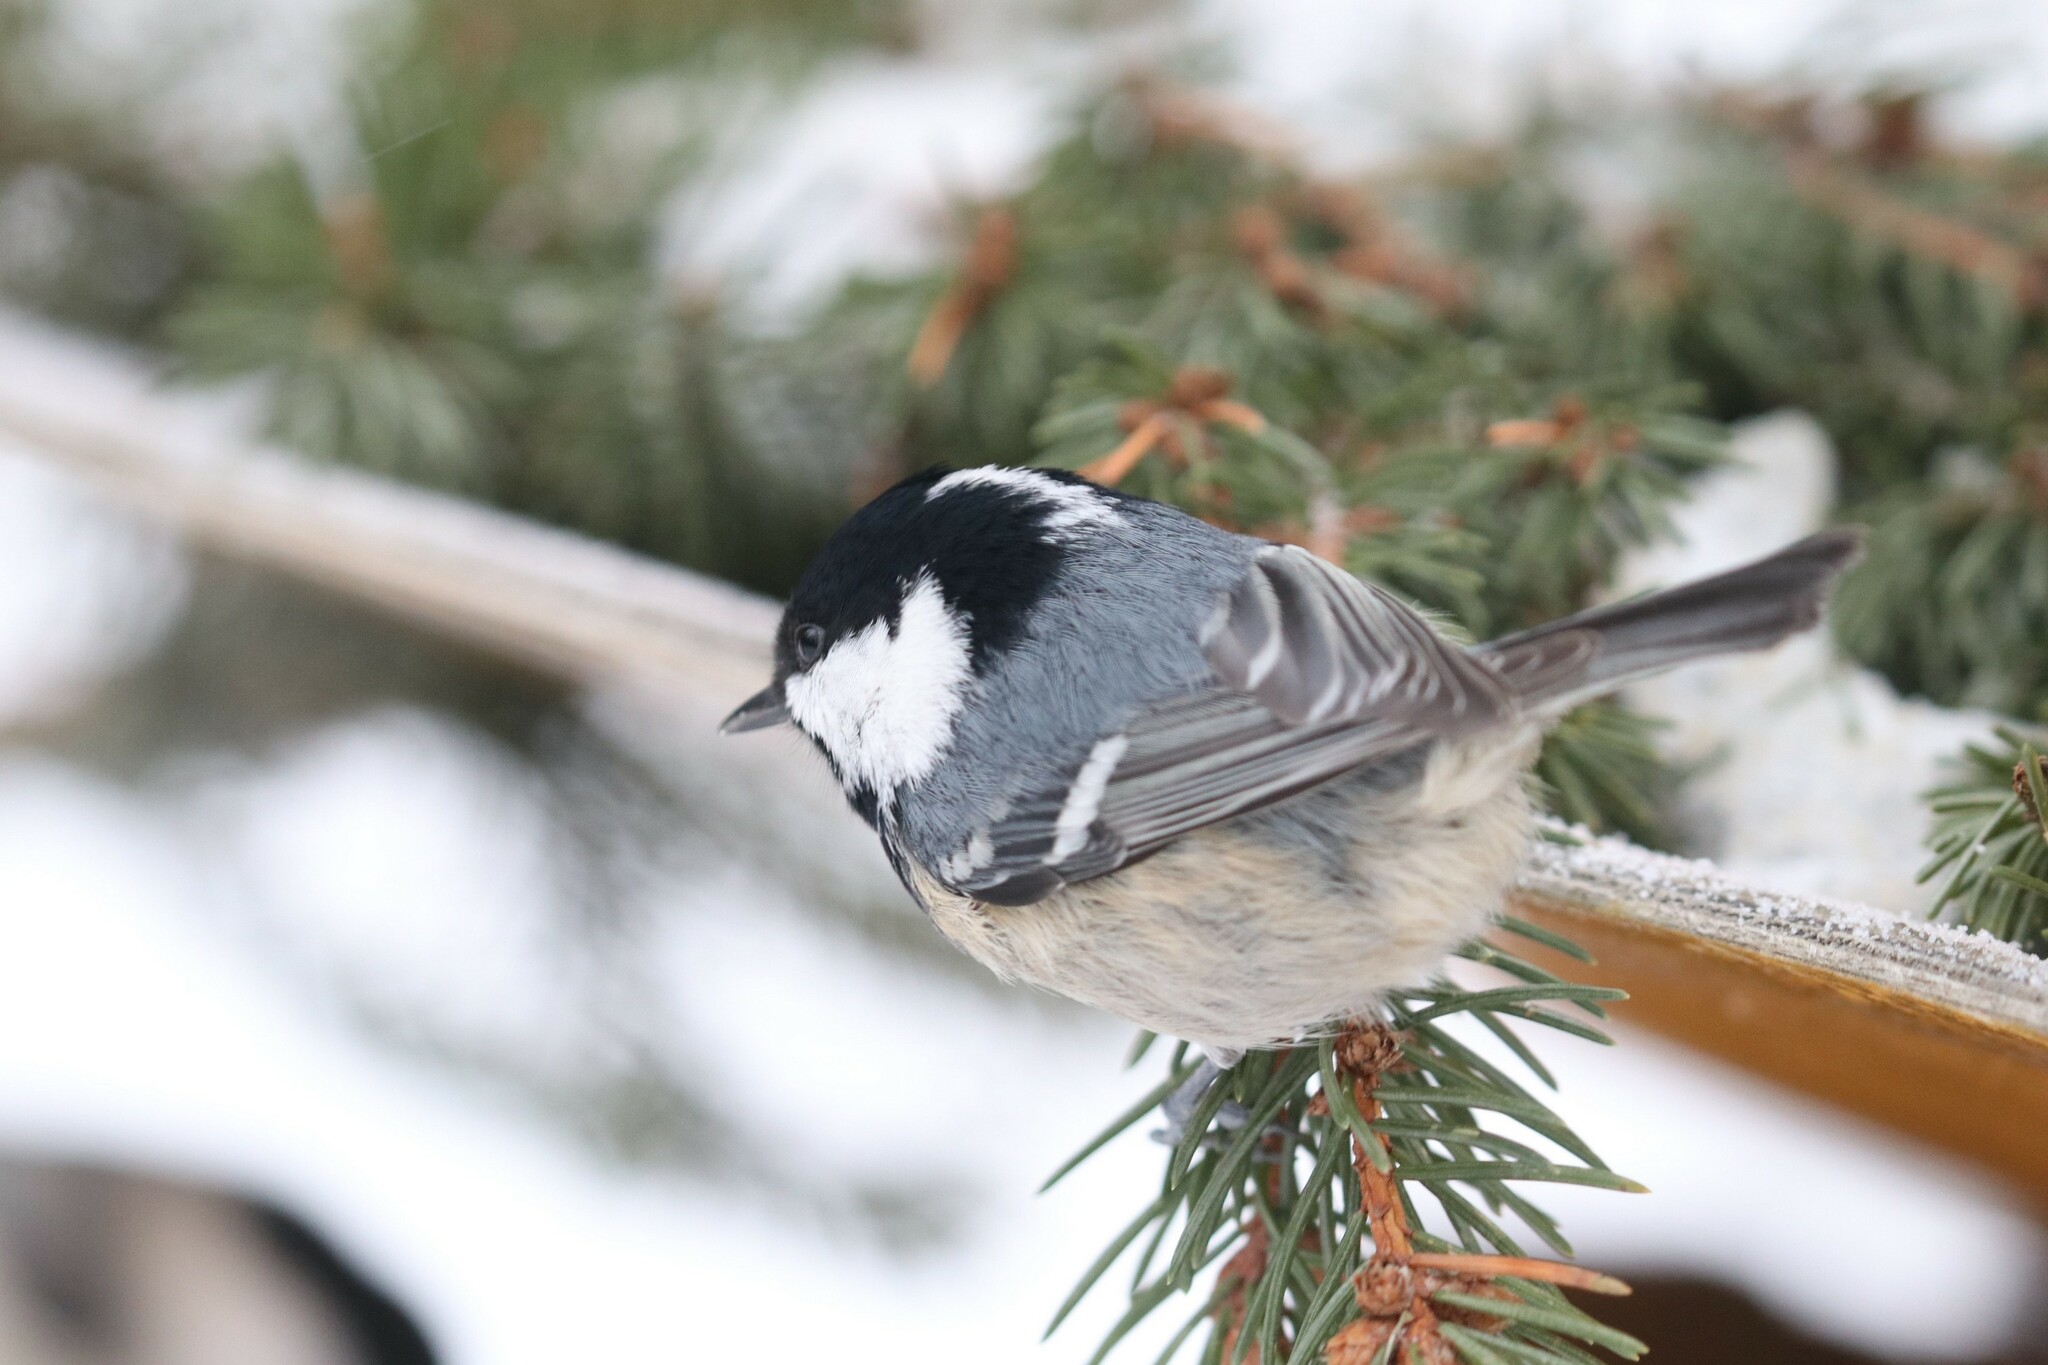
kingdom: Animalia
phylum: Chordata
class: Aves
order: Passeriformes
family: Paridae
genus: Periparus
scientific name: Periparus ater
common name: Coal tit
